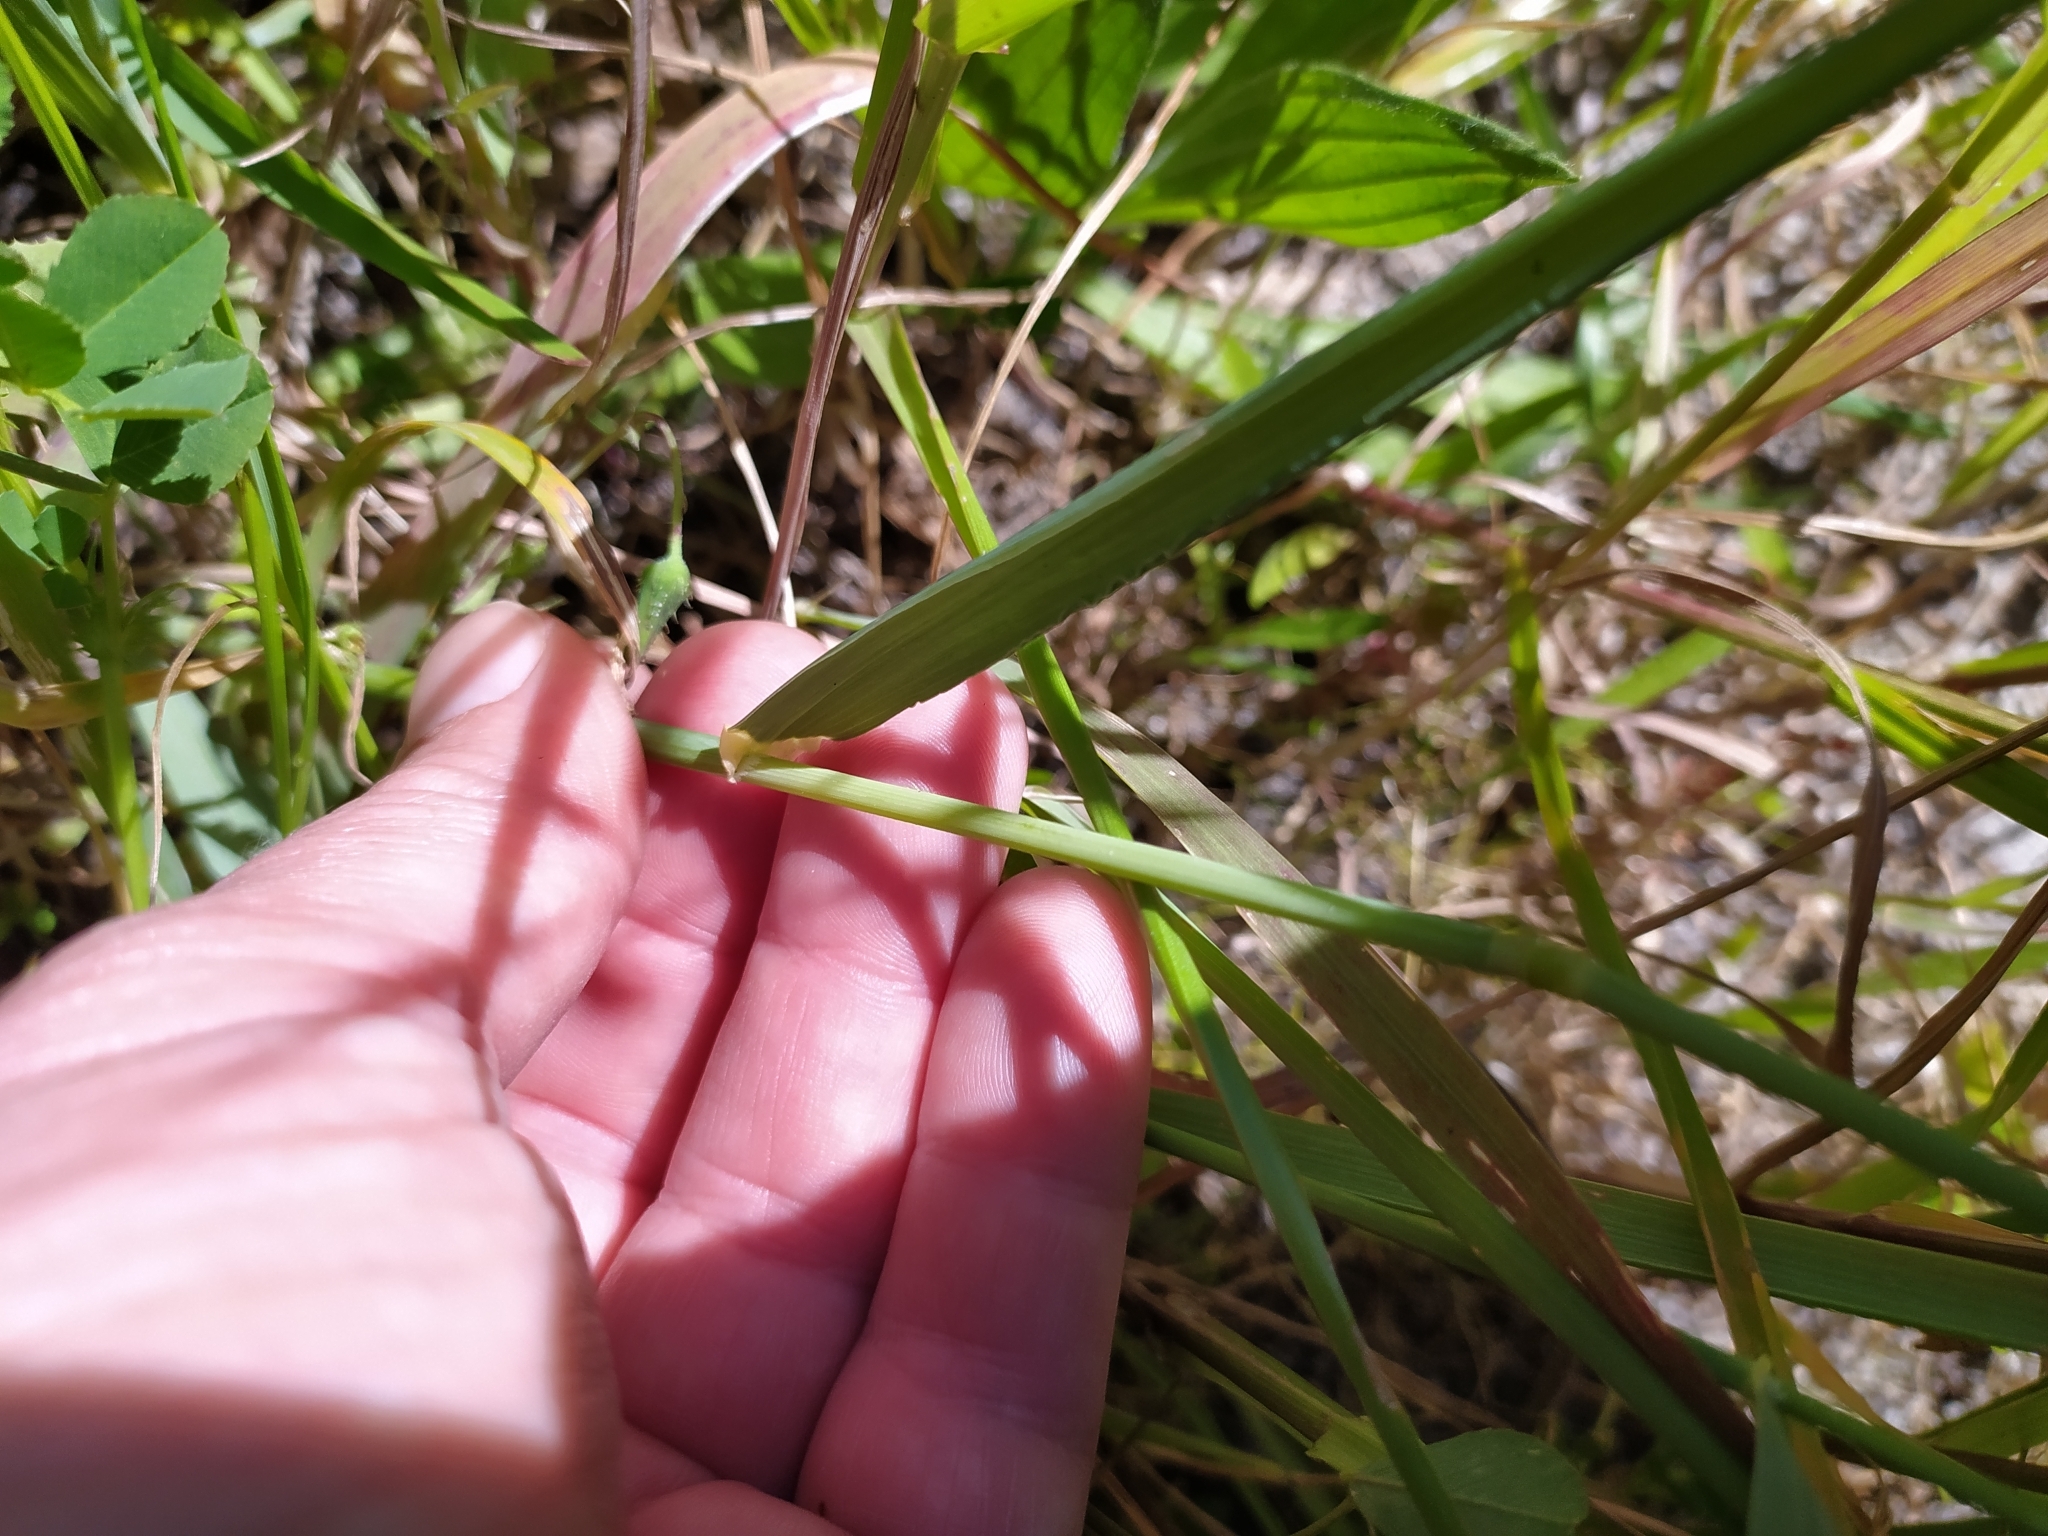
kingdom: Plantae
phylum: Tracheophyta
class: Liliopsida
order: Poales
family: Poaceae
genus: Ehrharta
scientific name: Ehrharta calycina
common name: Perennial veldtgrass
